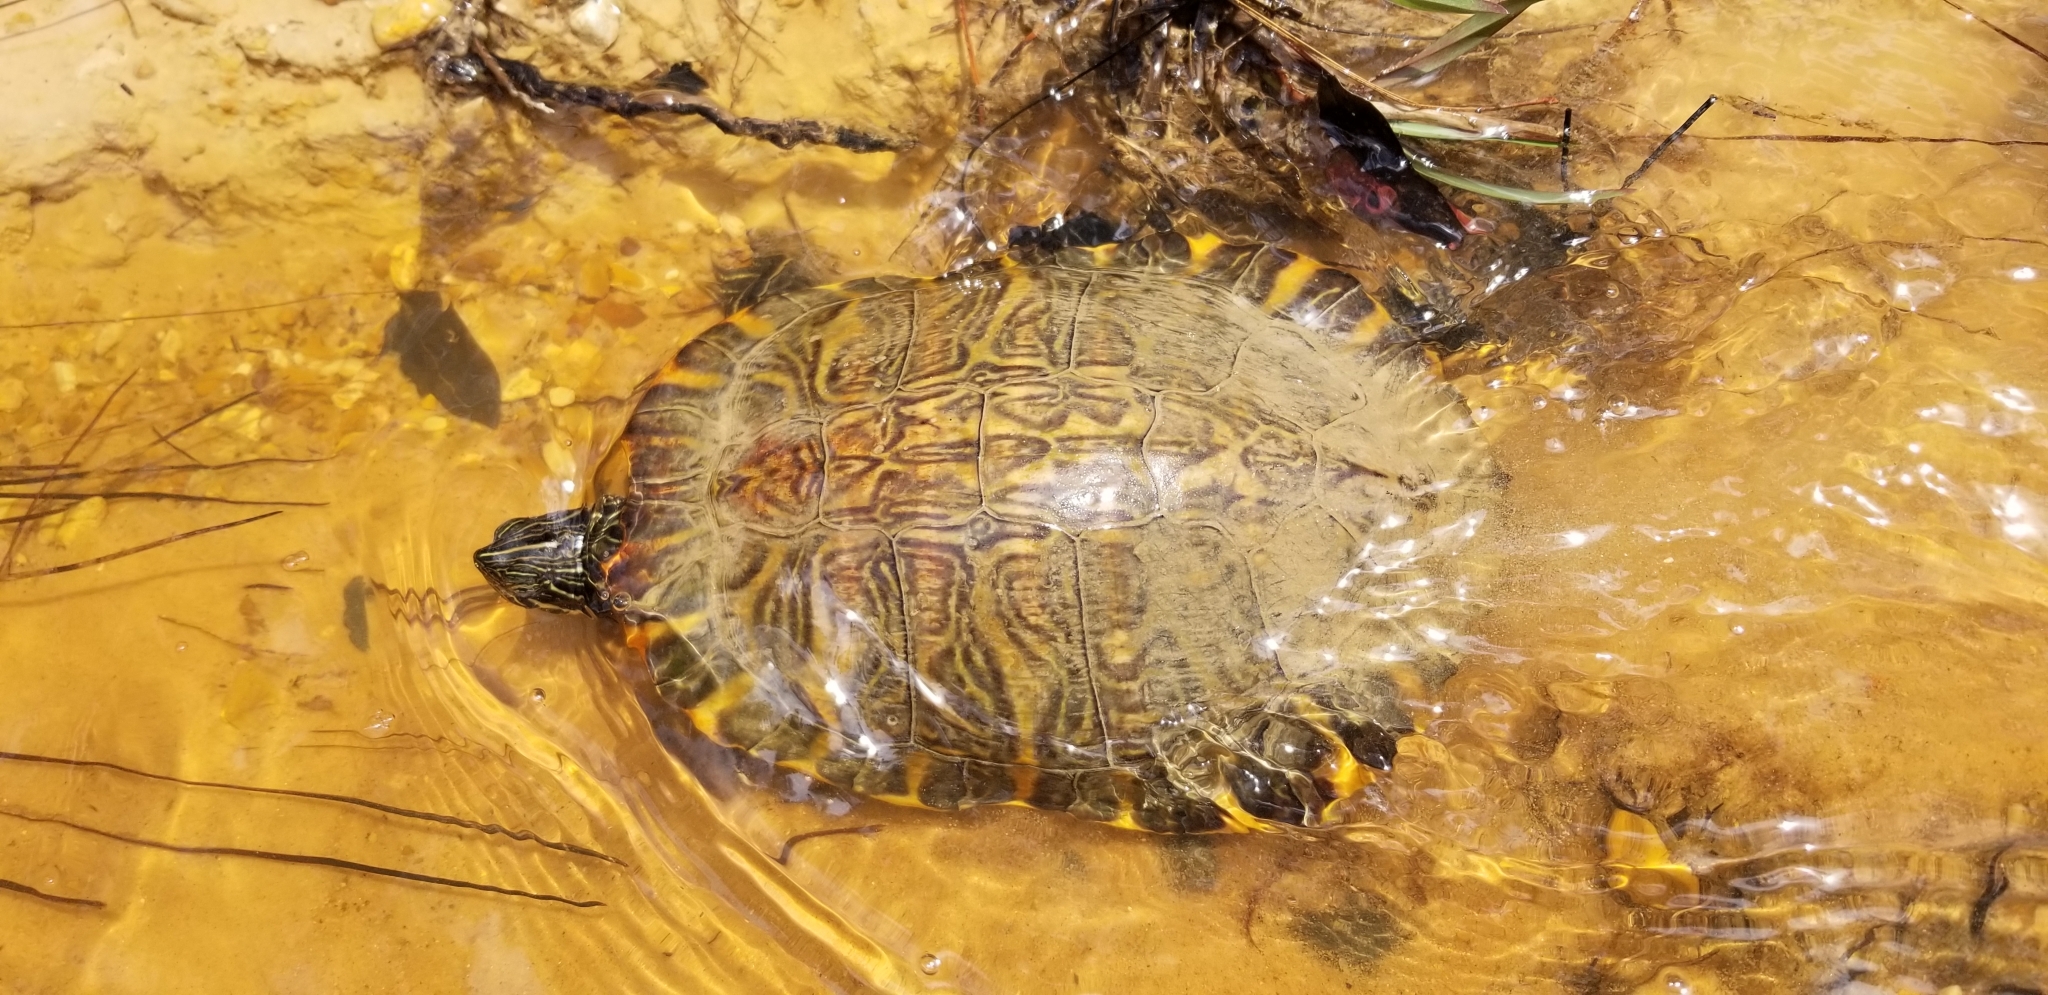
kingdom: Animalia
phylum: Chordata
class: Testudines
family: Emydidae
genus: Pseudemys
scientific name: Pseudemys concinna
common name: Eastern river cooter
